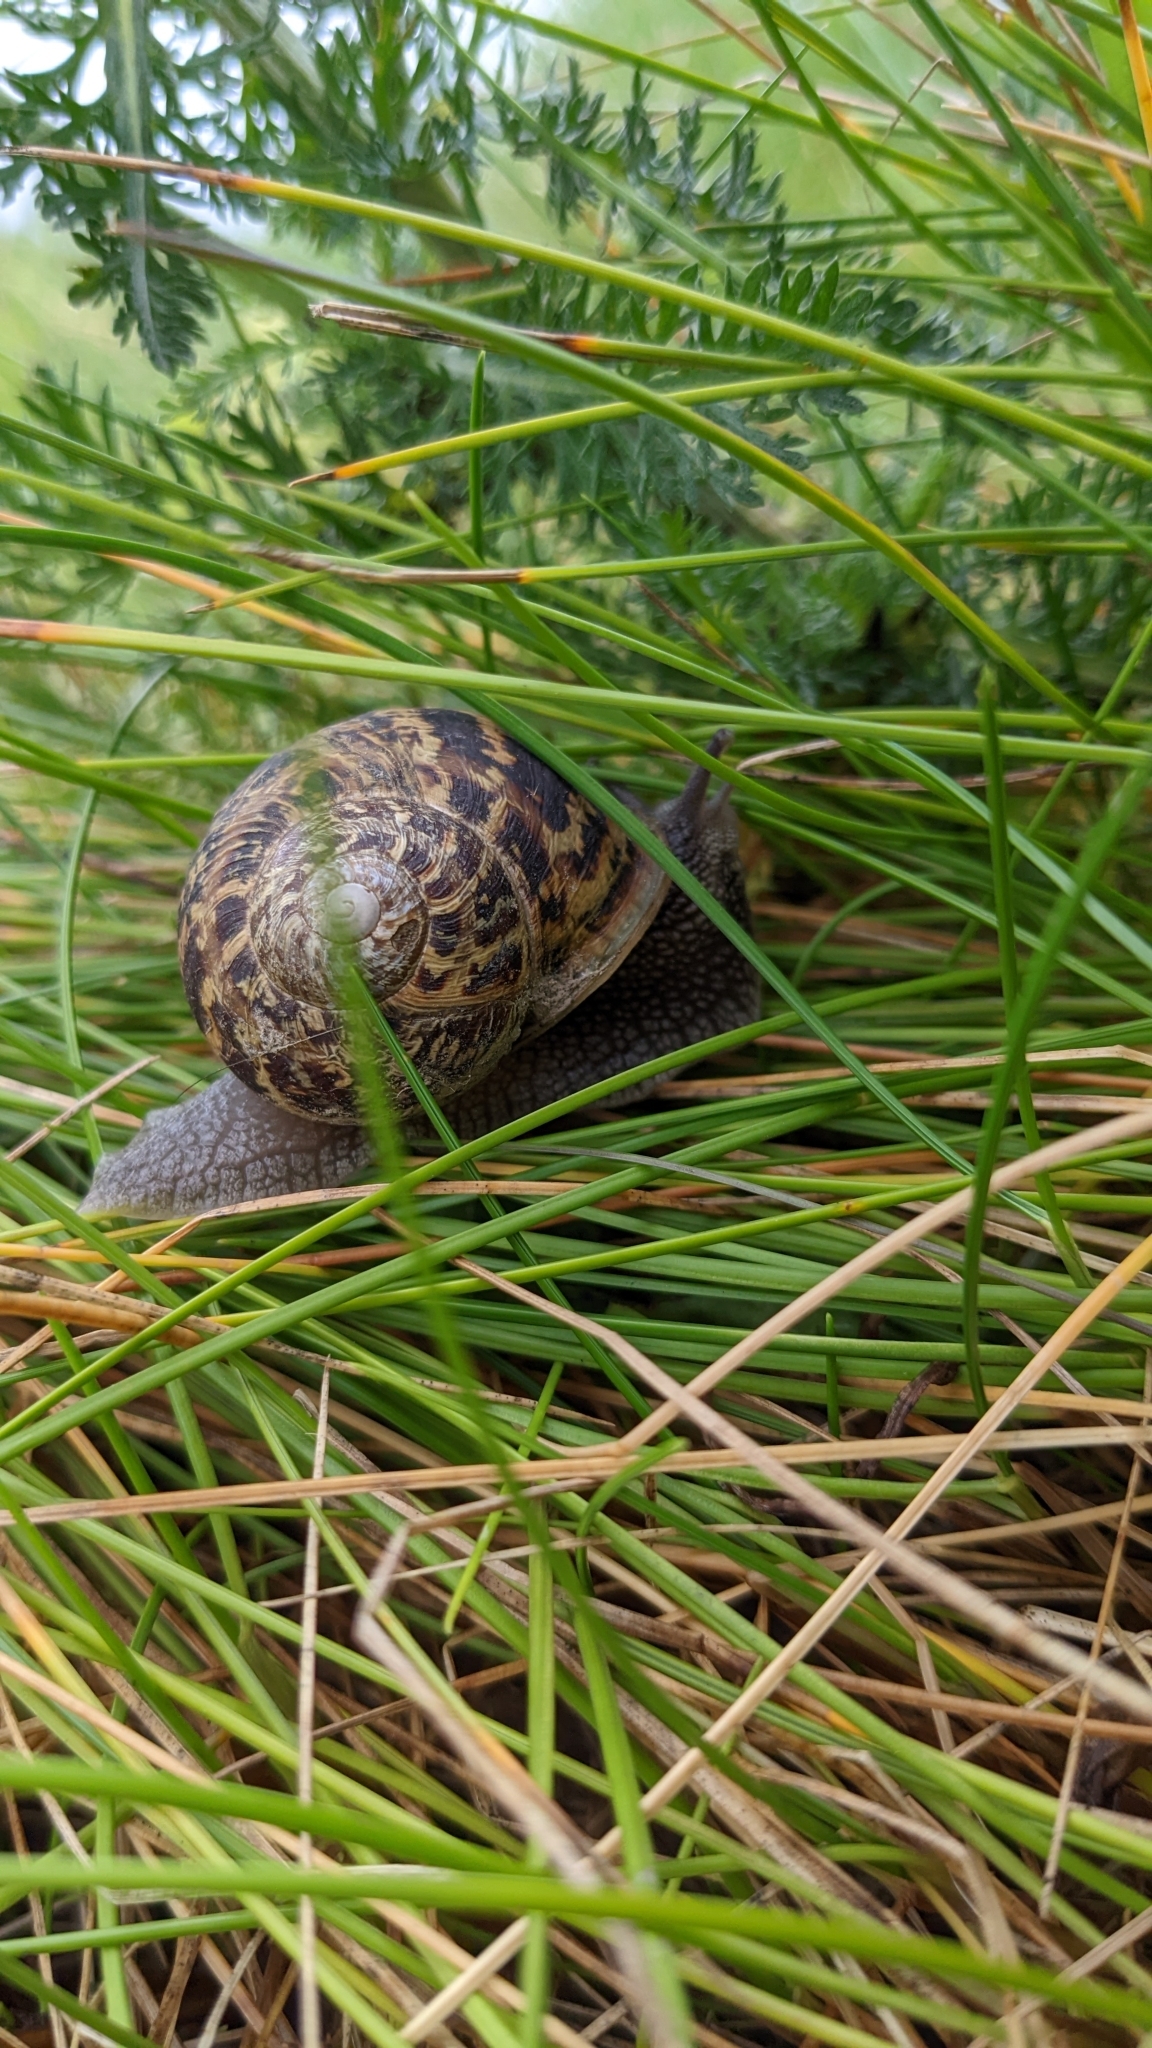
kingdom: Animalia
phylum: Mollusca
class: Gastropoda
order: Stylommatophora
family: Helicidae
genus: Cornu
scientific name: Cornu aspersum
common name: Brown garden snail
